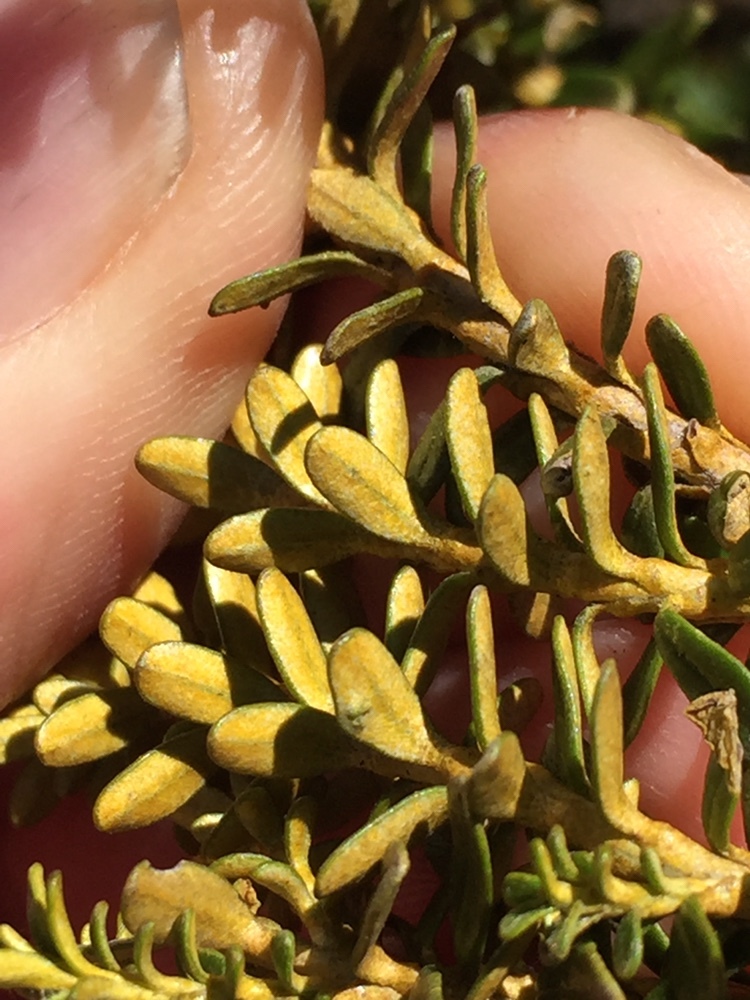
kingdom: Plantae
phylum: Tracheophyta
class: Magnoliopsida
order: Asterales
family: Asteraceae
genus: Ozothamnus
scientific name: Ozothamnus leptophyllus
